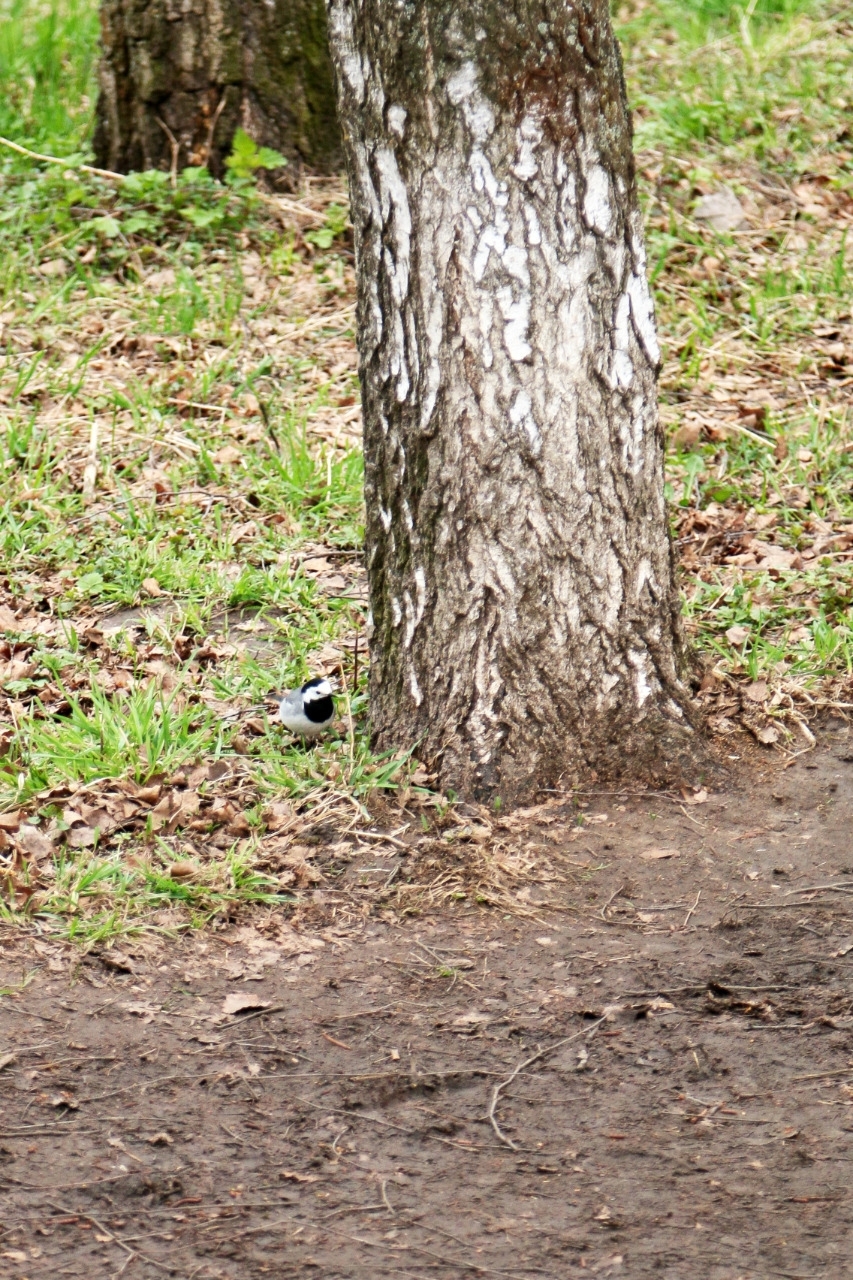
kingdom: Animalia
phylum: Chordata
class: Aves
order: Passeriformes
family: Motacillidae
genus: Motacilla
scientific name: Motacilla alba
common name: White wagtail
